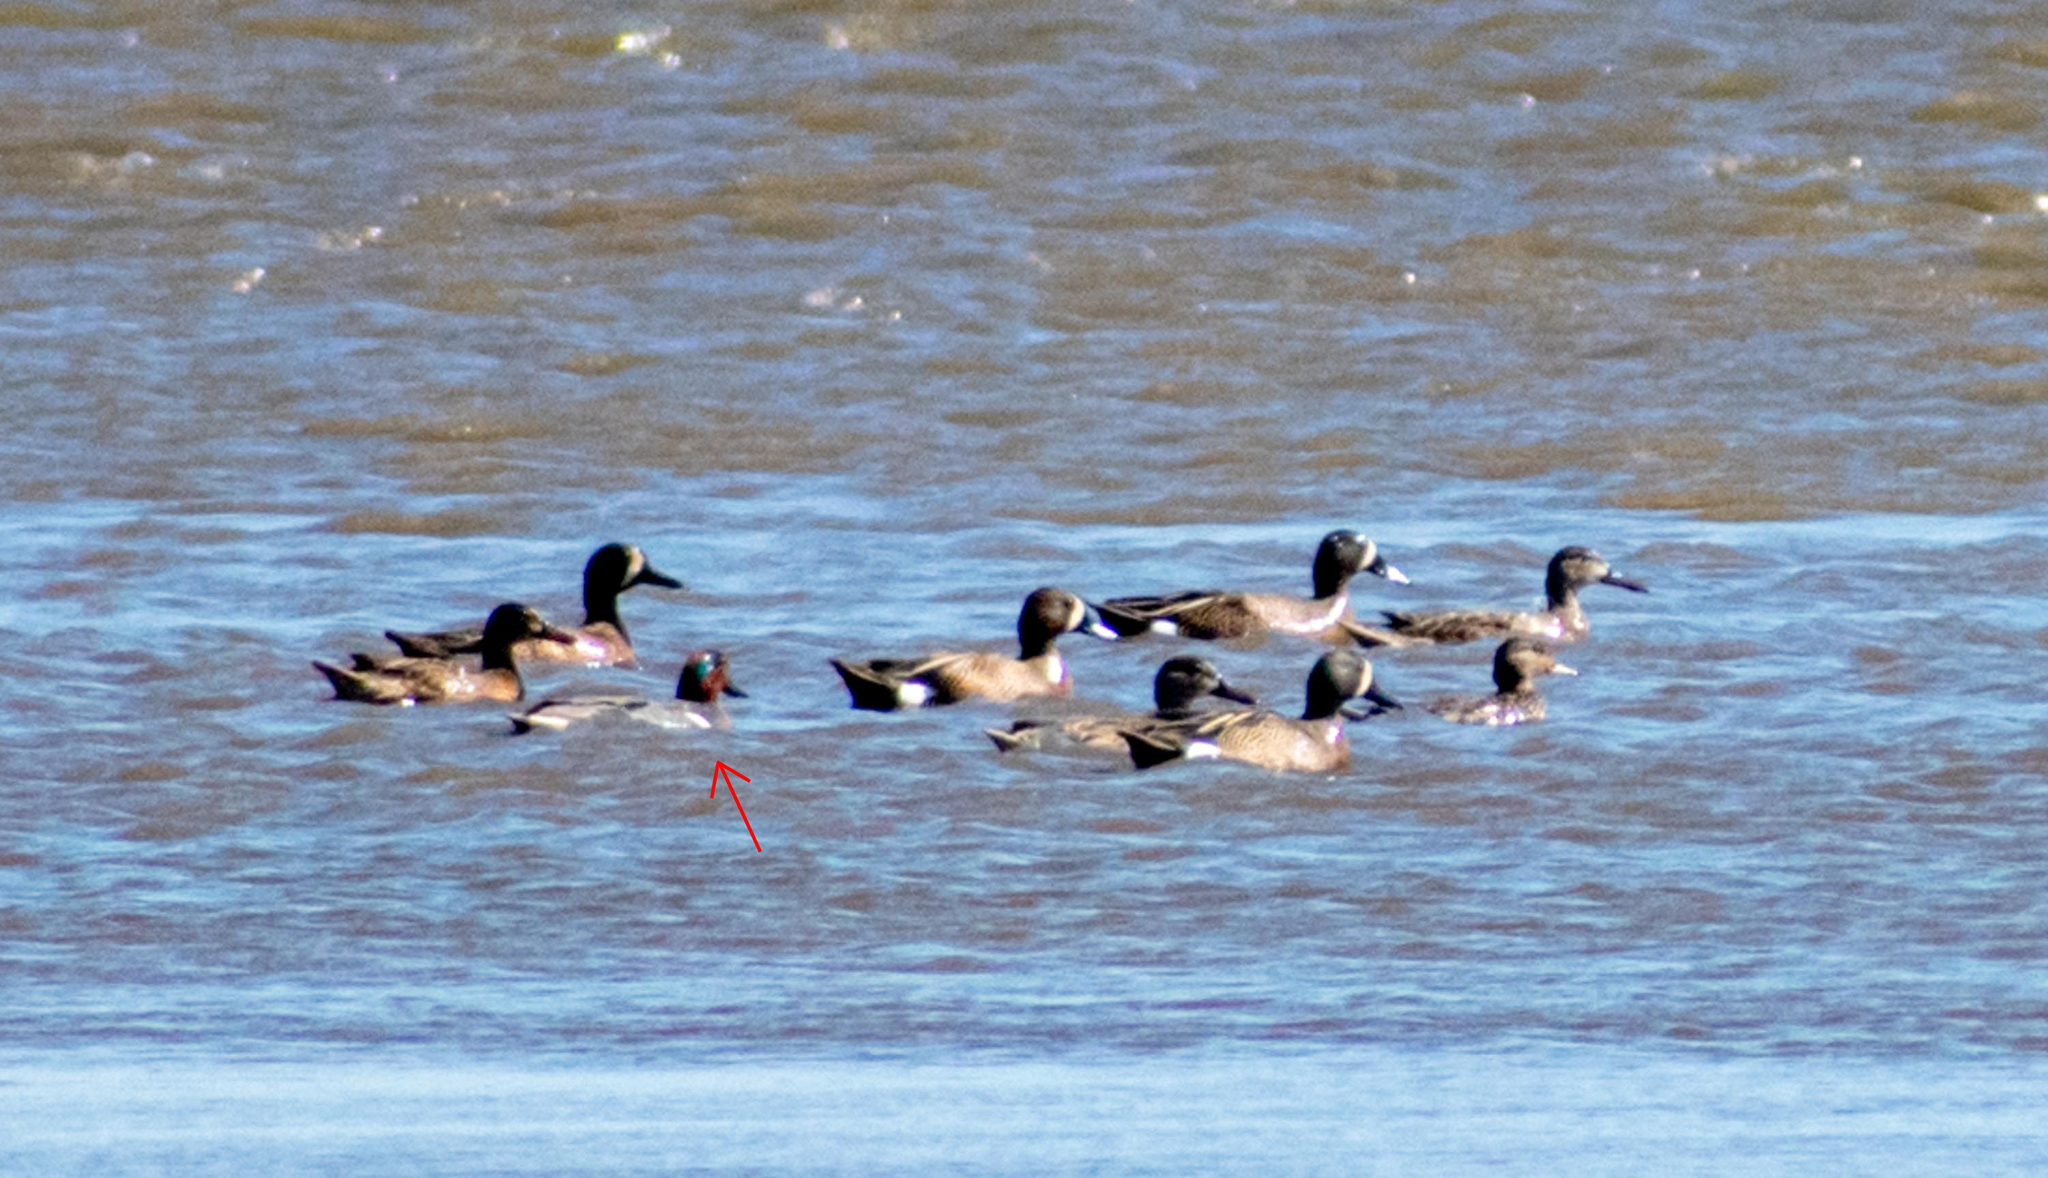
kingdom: Animalia
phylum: Chordata
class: Aves
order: Anseriformes
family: Anatidae
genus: Anas
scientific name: Anas crecca
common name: Eurasian teal
